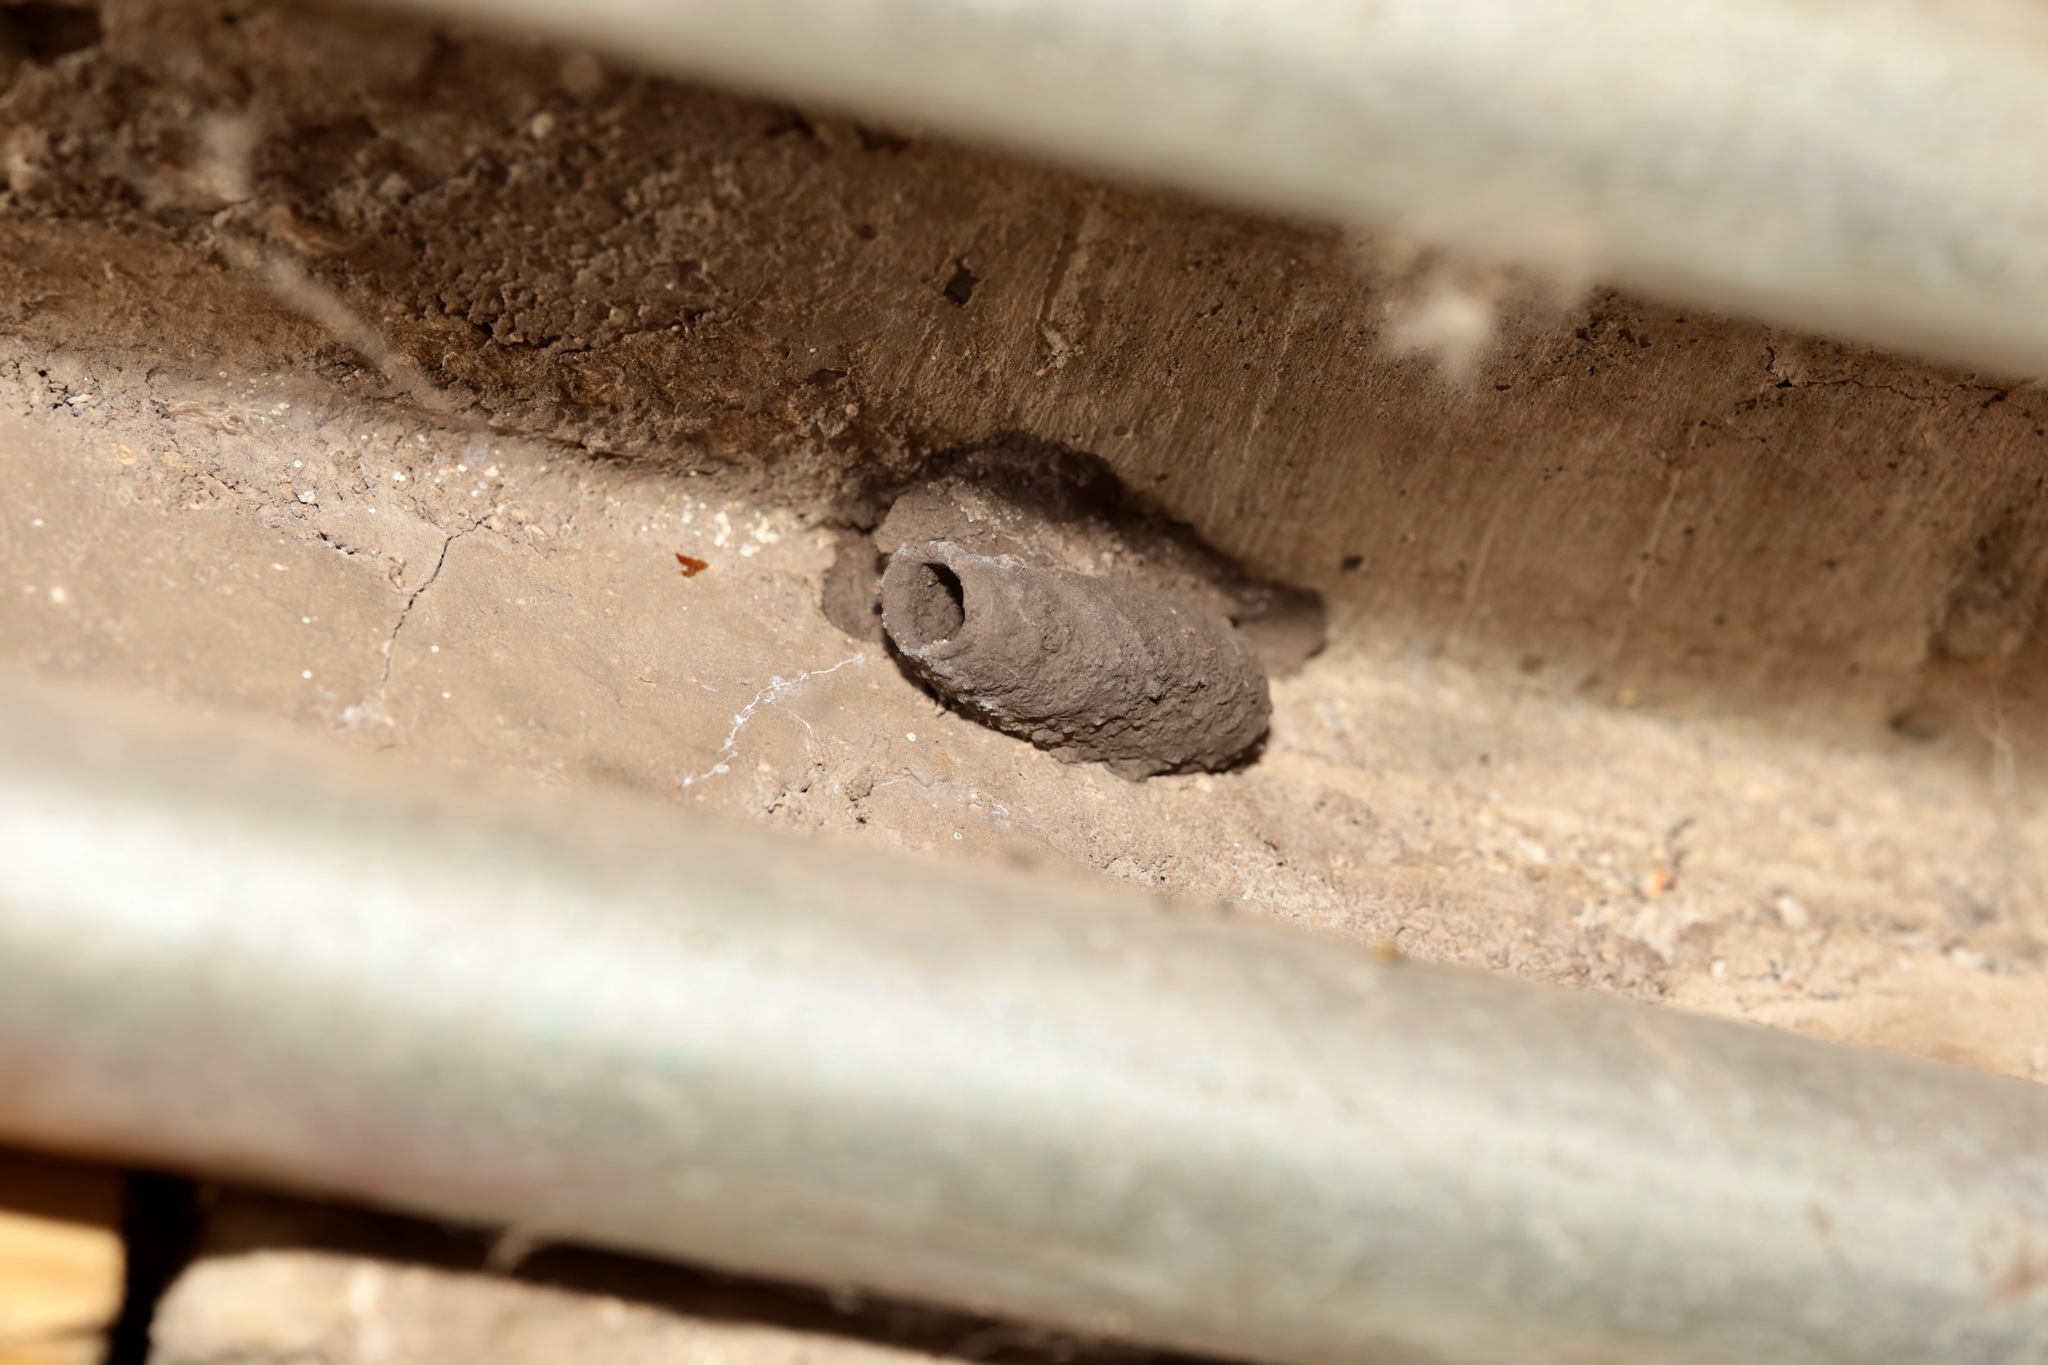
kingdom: Animalia
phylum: Arthropoda
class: Insecta
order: Hymenoptera
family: Sphecidae
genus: Sceliphron
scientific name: Sceliphron
